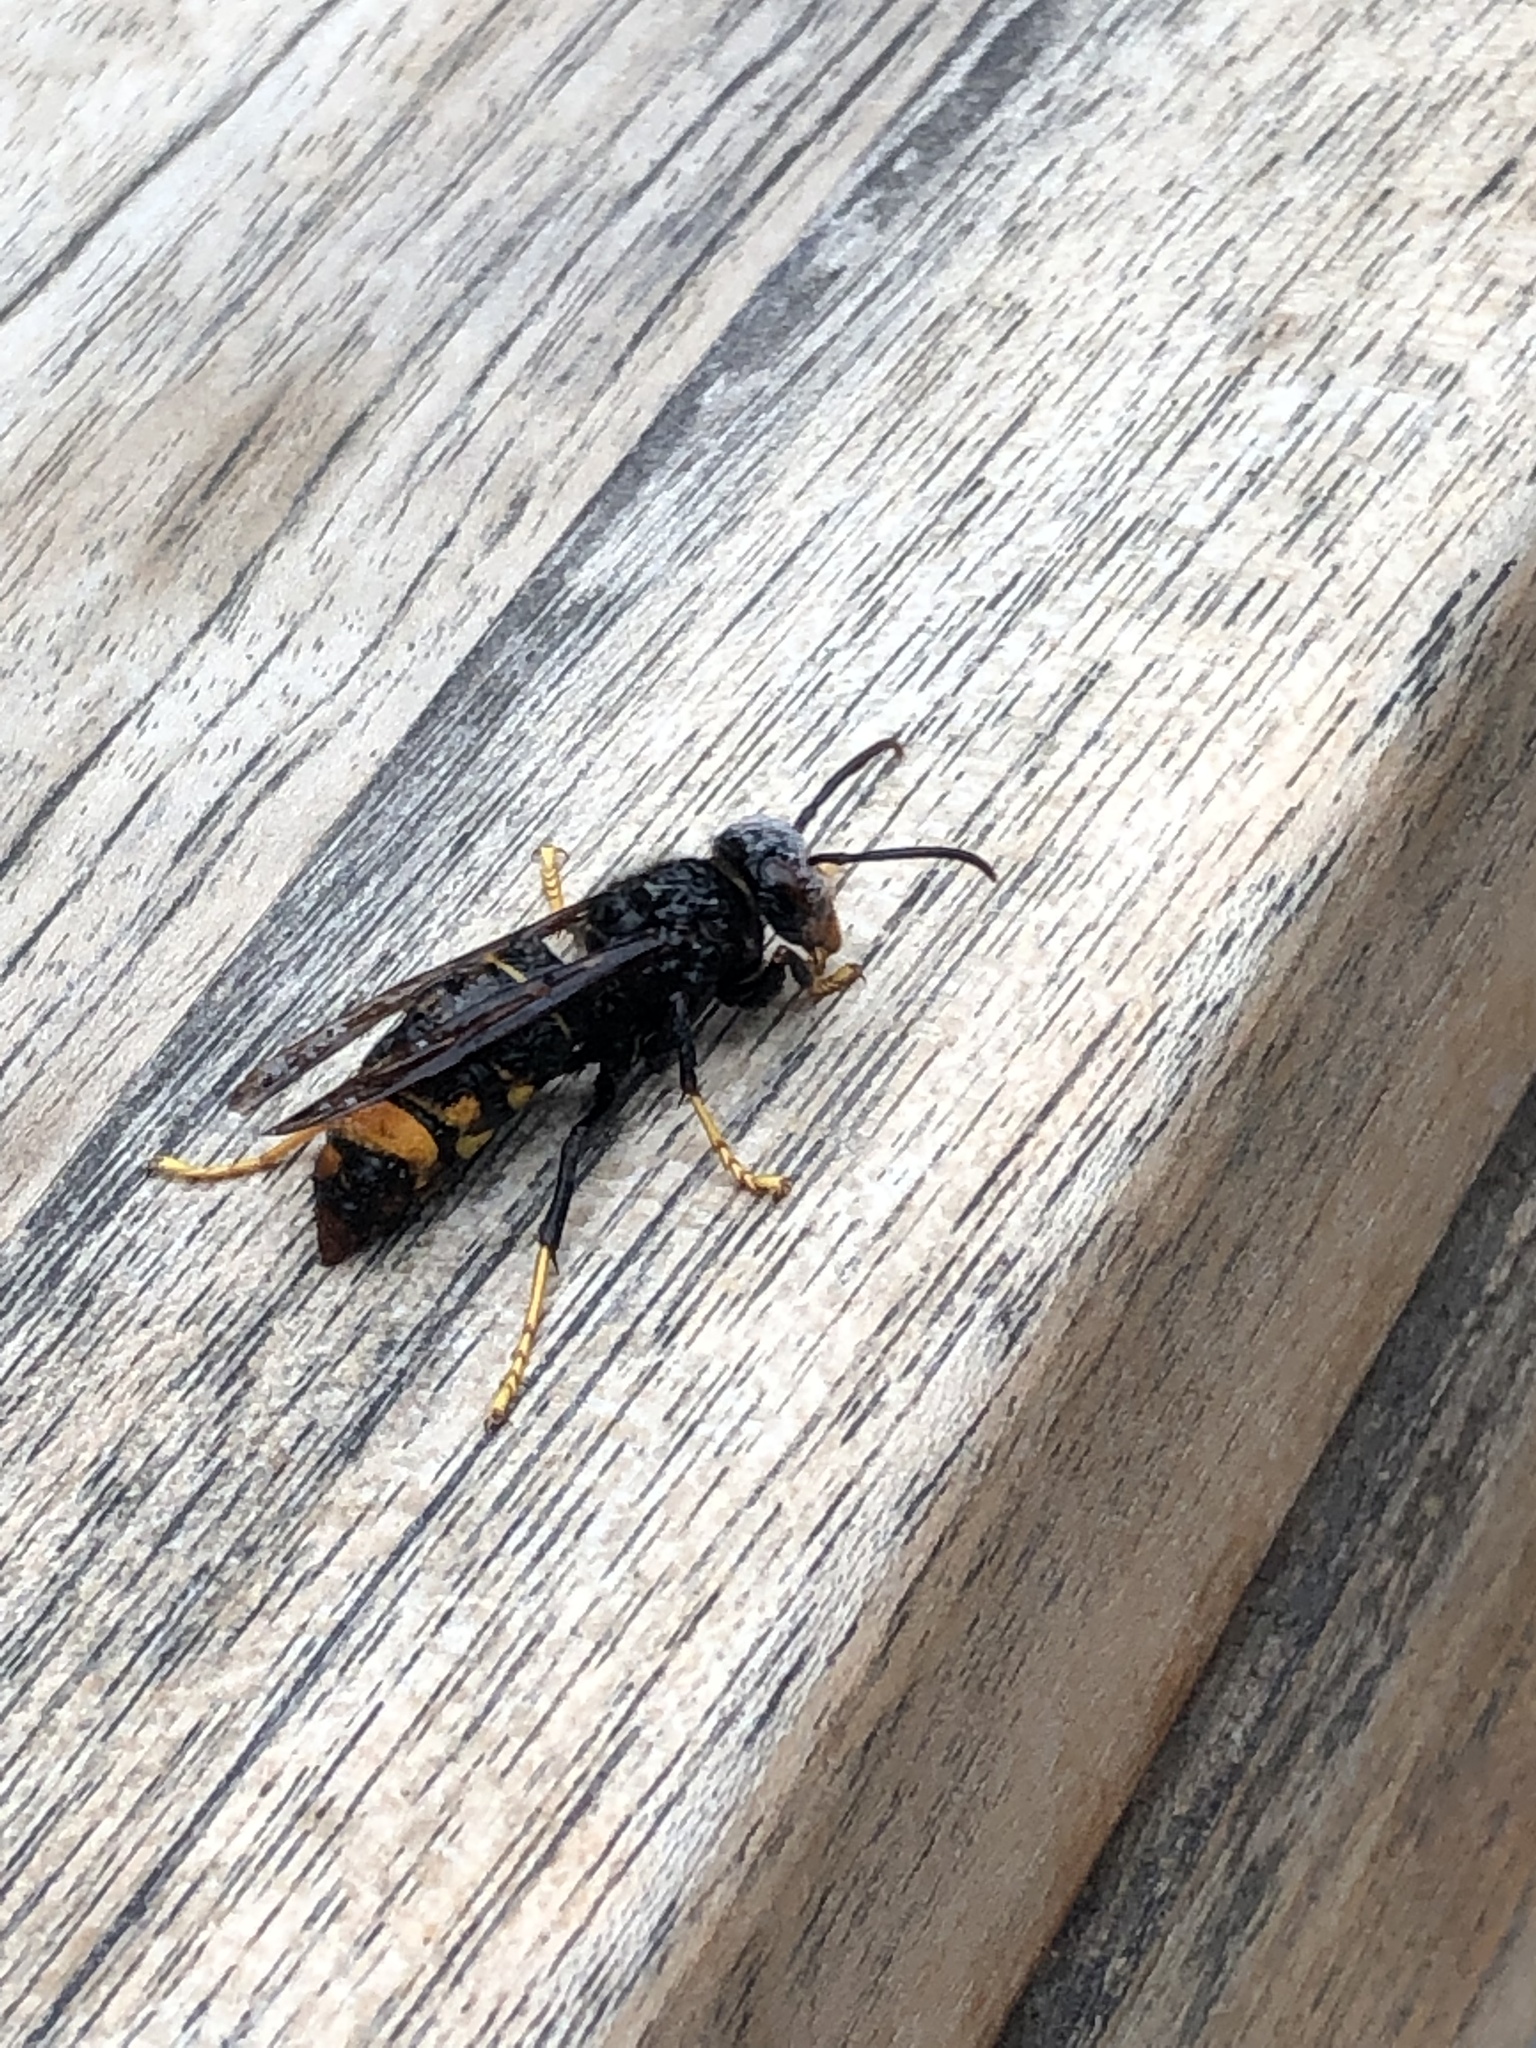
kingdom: Animalia
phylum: Arthropoda
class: Insecta
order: Hymenoptera
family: Vespidae
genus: Vespa
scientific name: Vespa velutina
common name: Asian hornet
